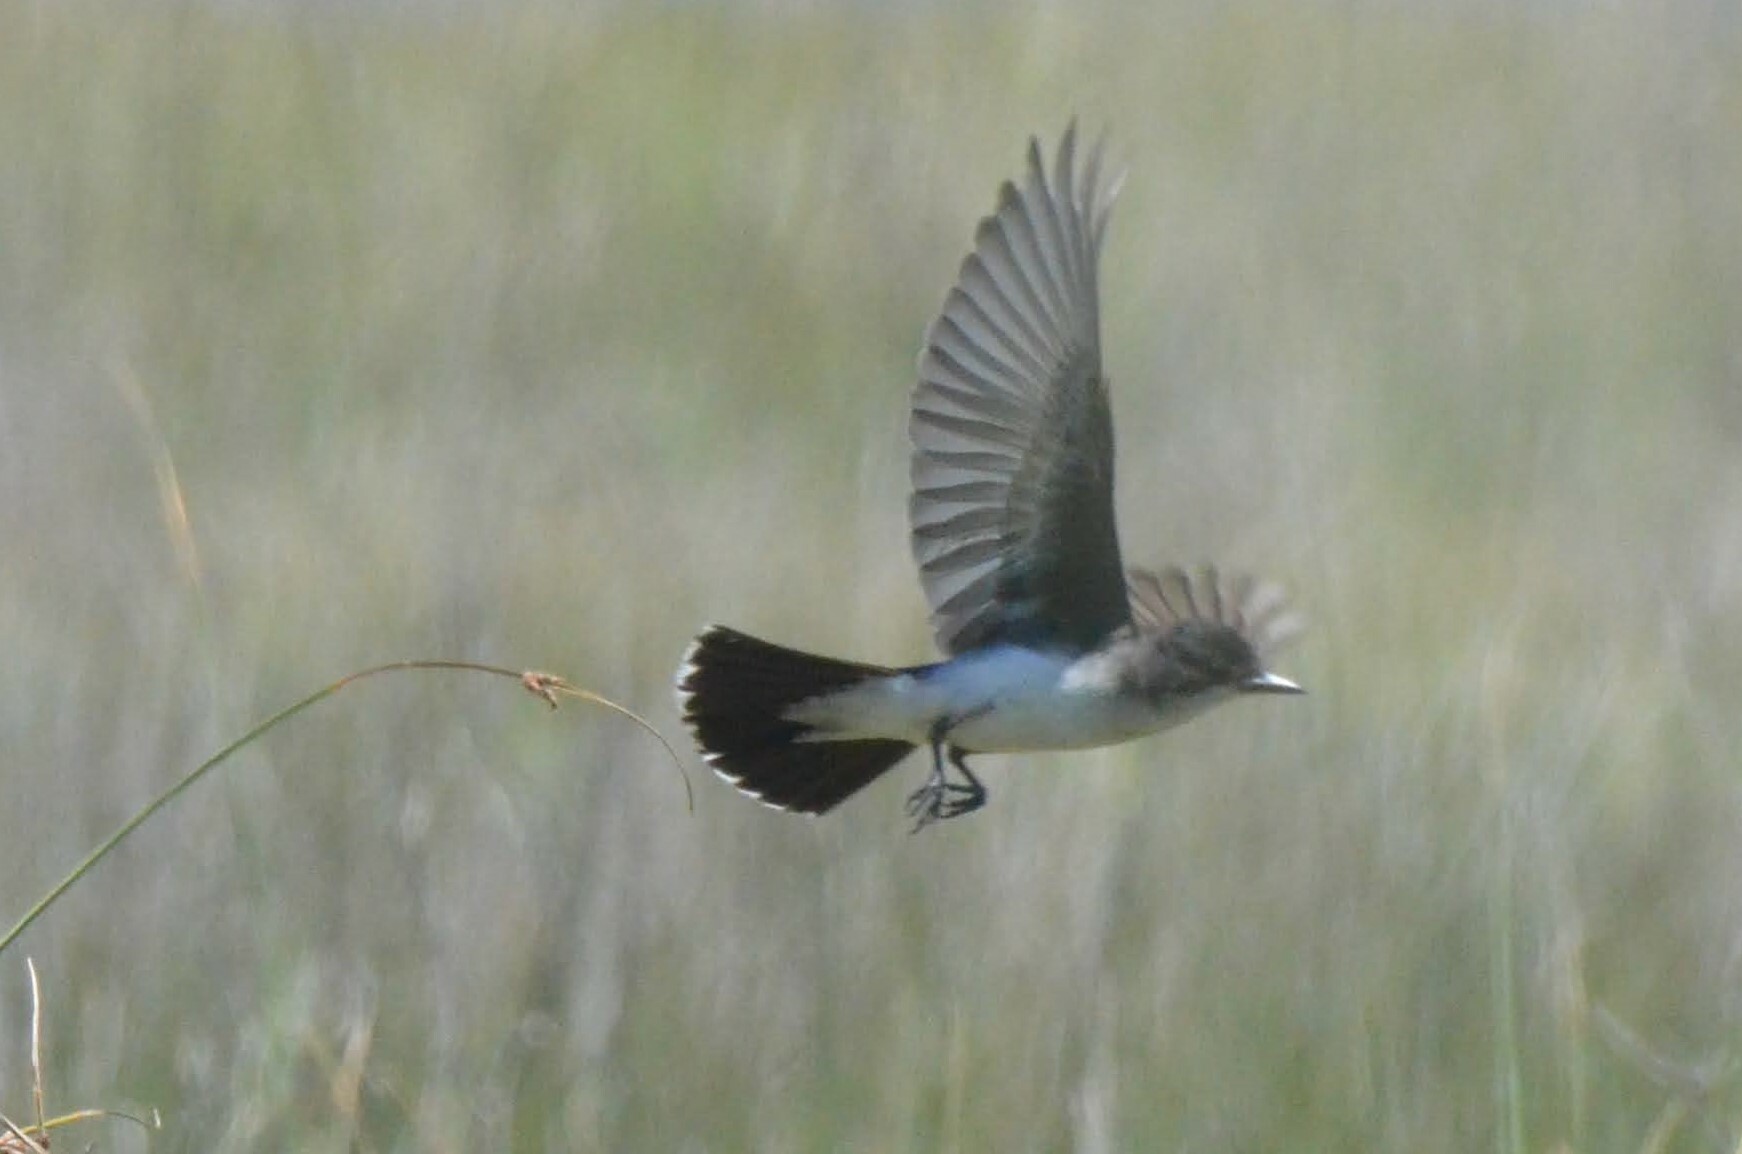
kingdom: Animalia
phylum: Chordata
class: Aves
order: Passeriformes
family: Tyrannidae
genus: Tyrannus
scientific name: Tyrannus tyrannus
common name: Eastern kingbird
